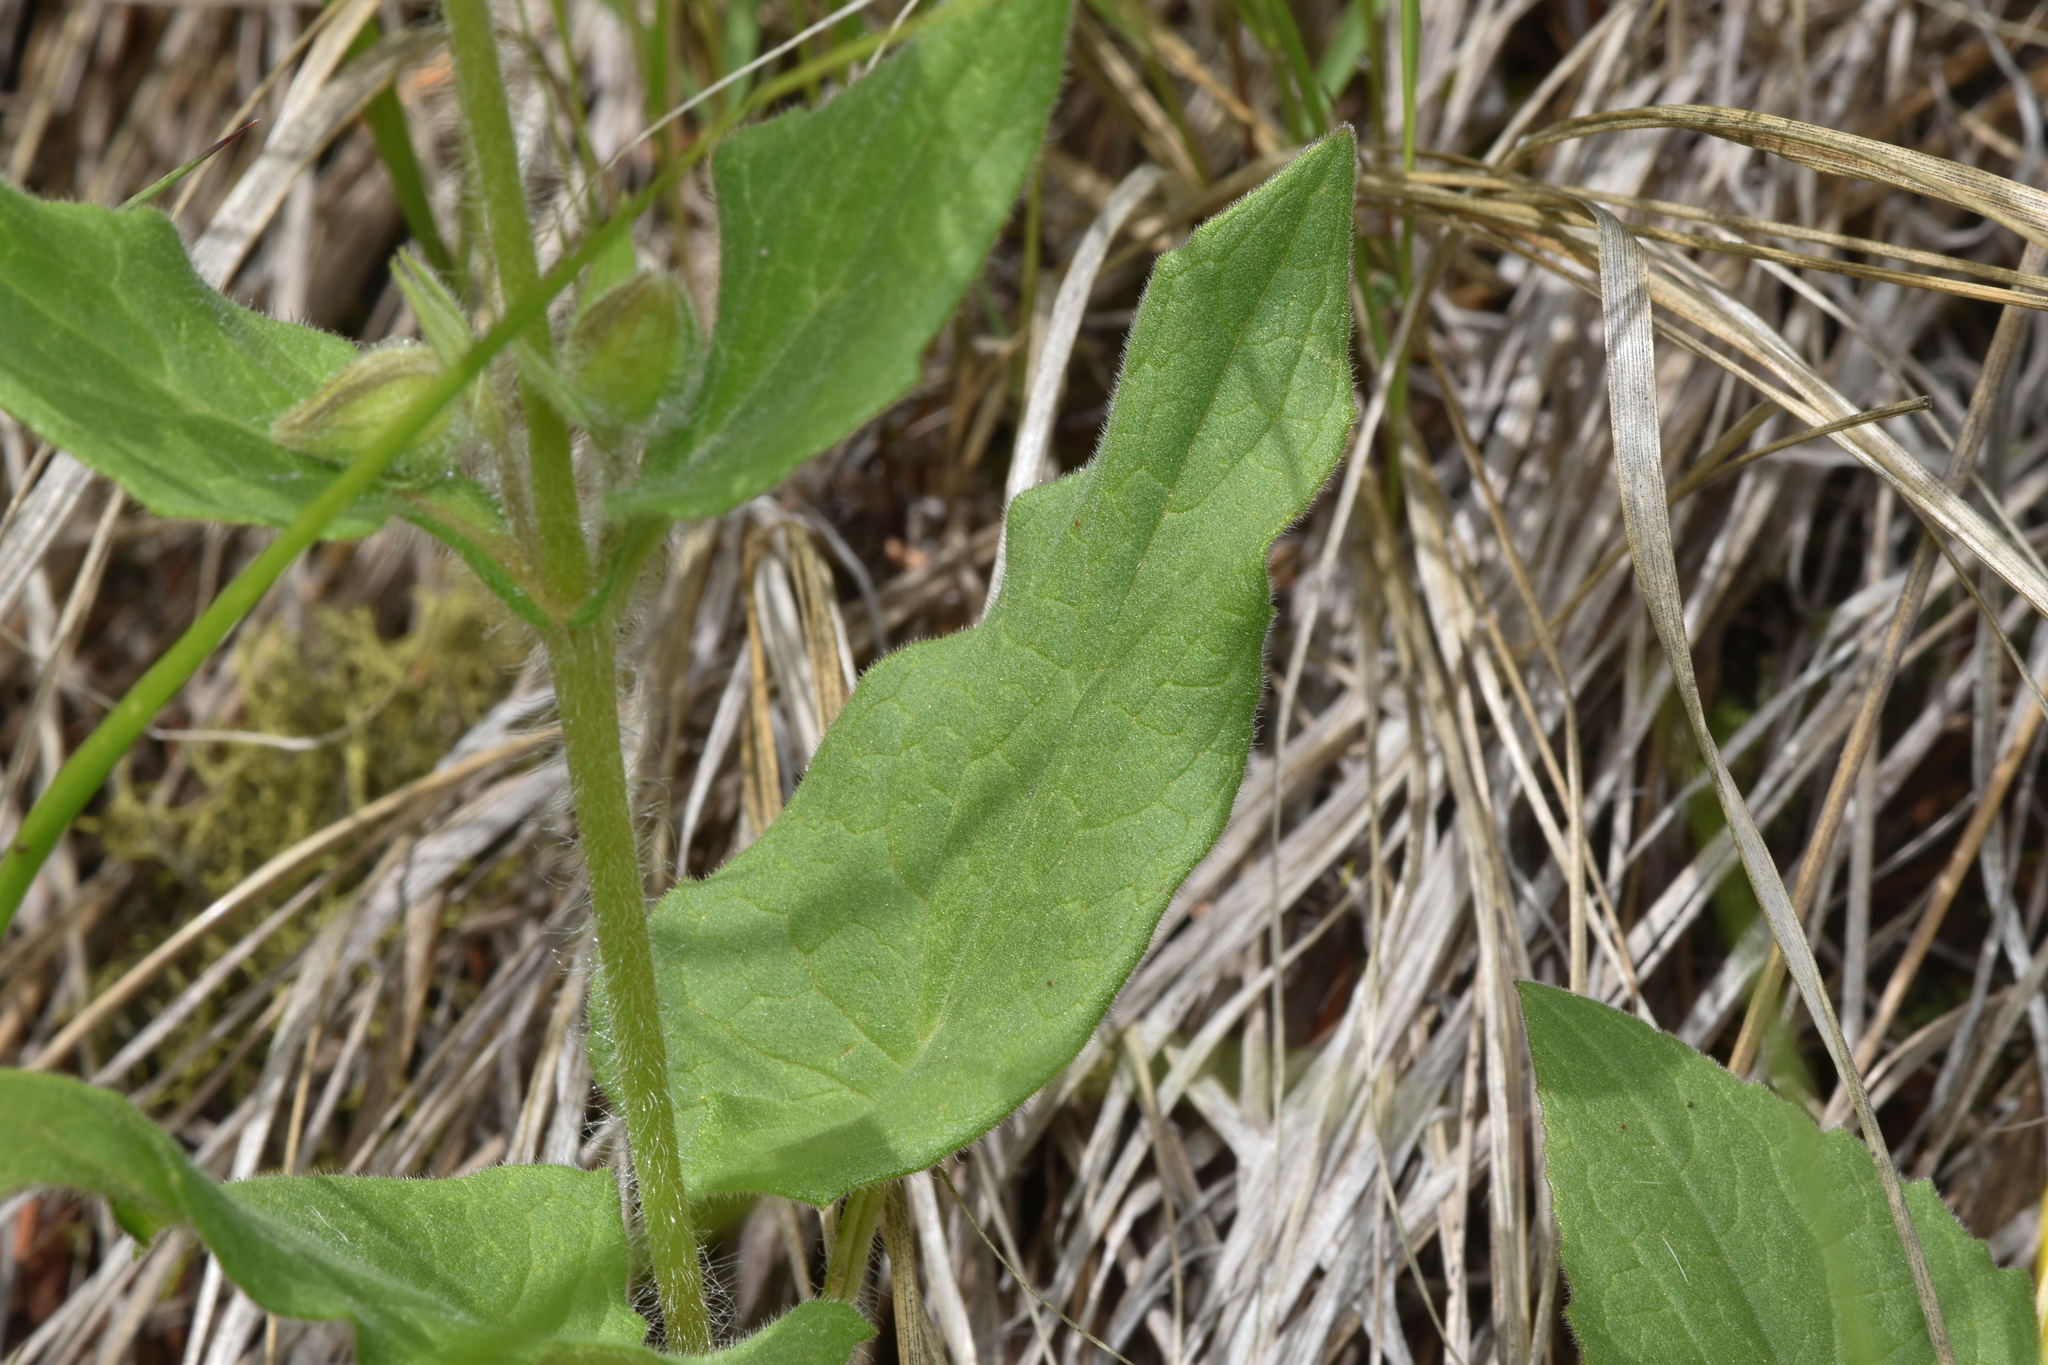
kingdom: Plantae
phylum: Tracheophyta
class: Magnoliopsida
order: Asterales
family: Asteraceae
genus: Arnica
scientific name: Arnica cordifolia
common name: Heart-leaf arnica
